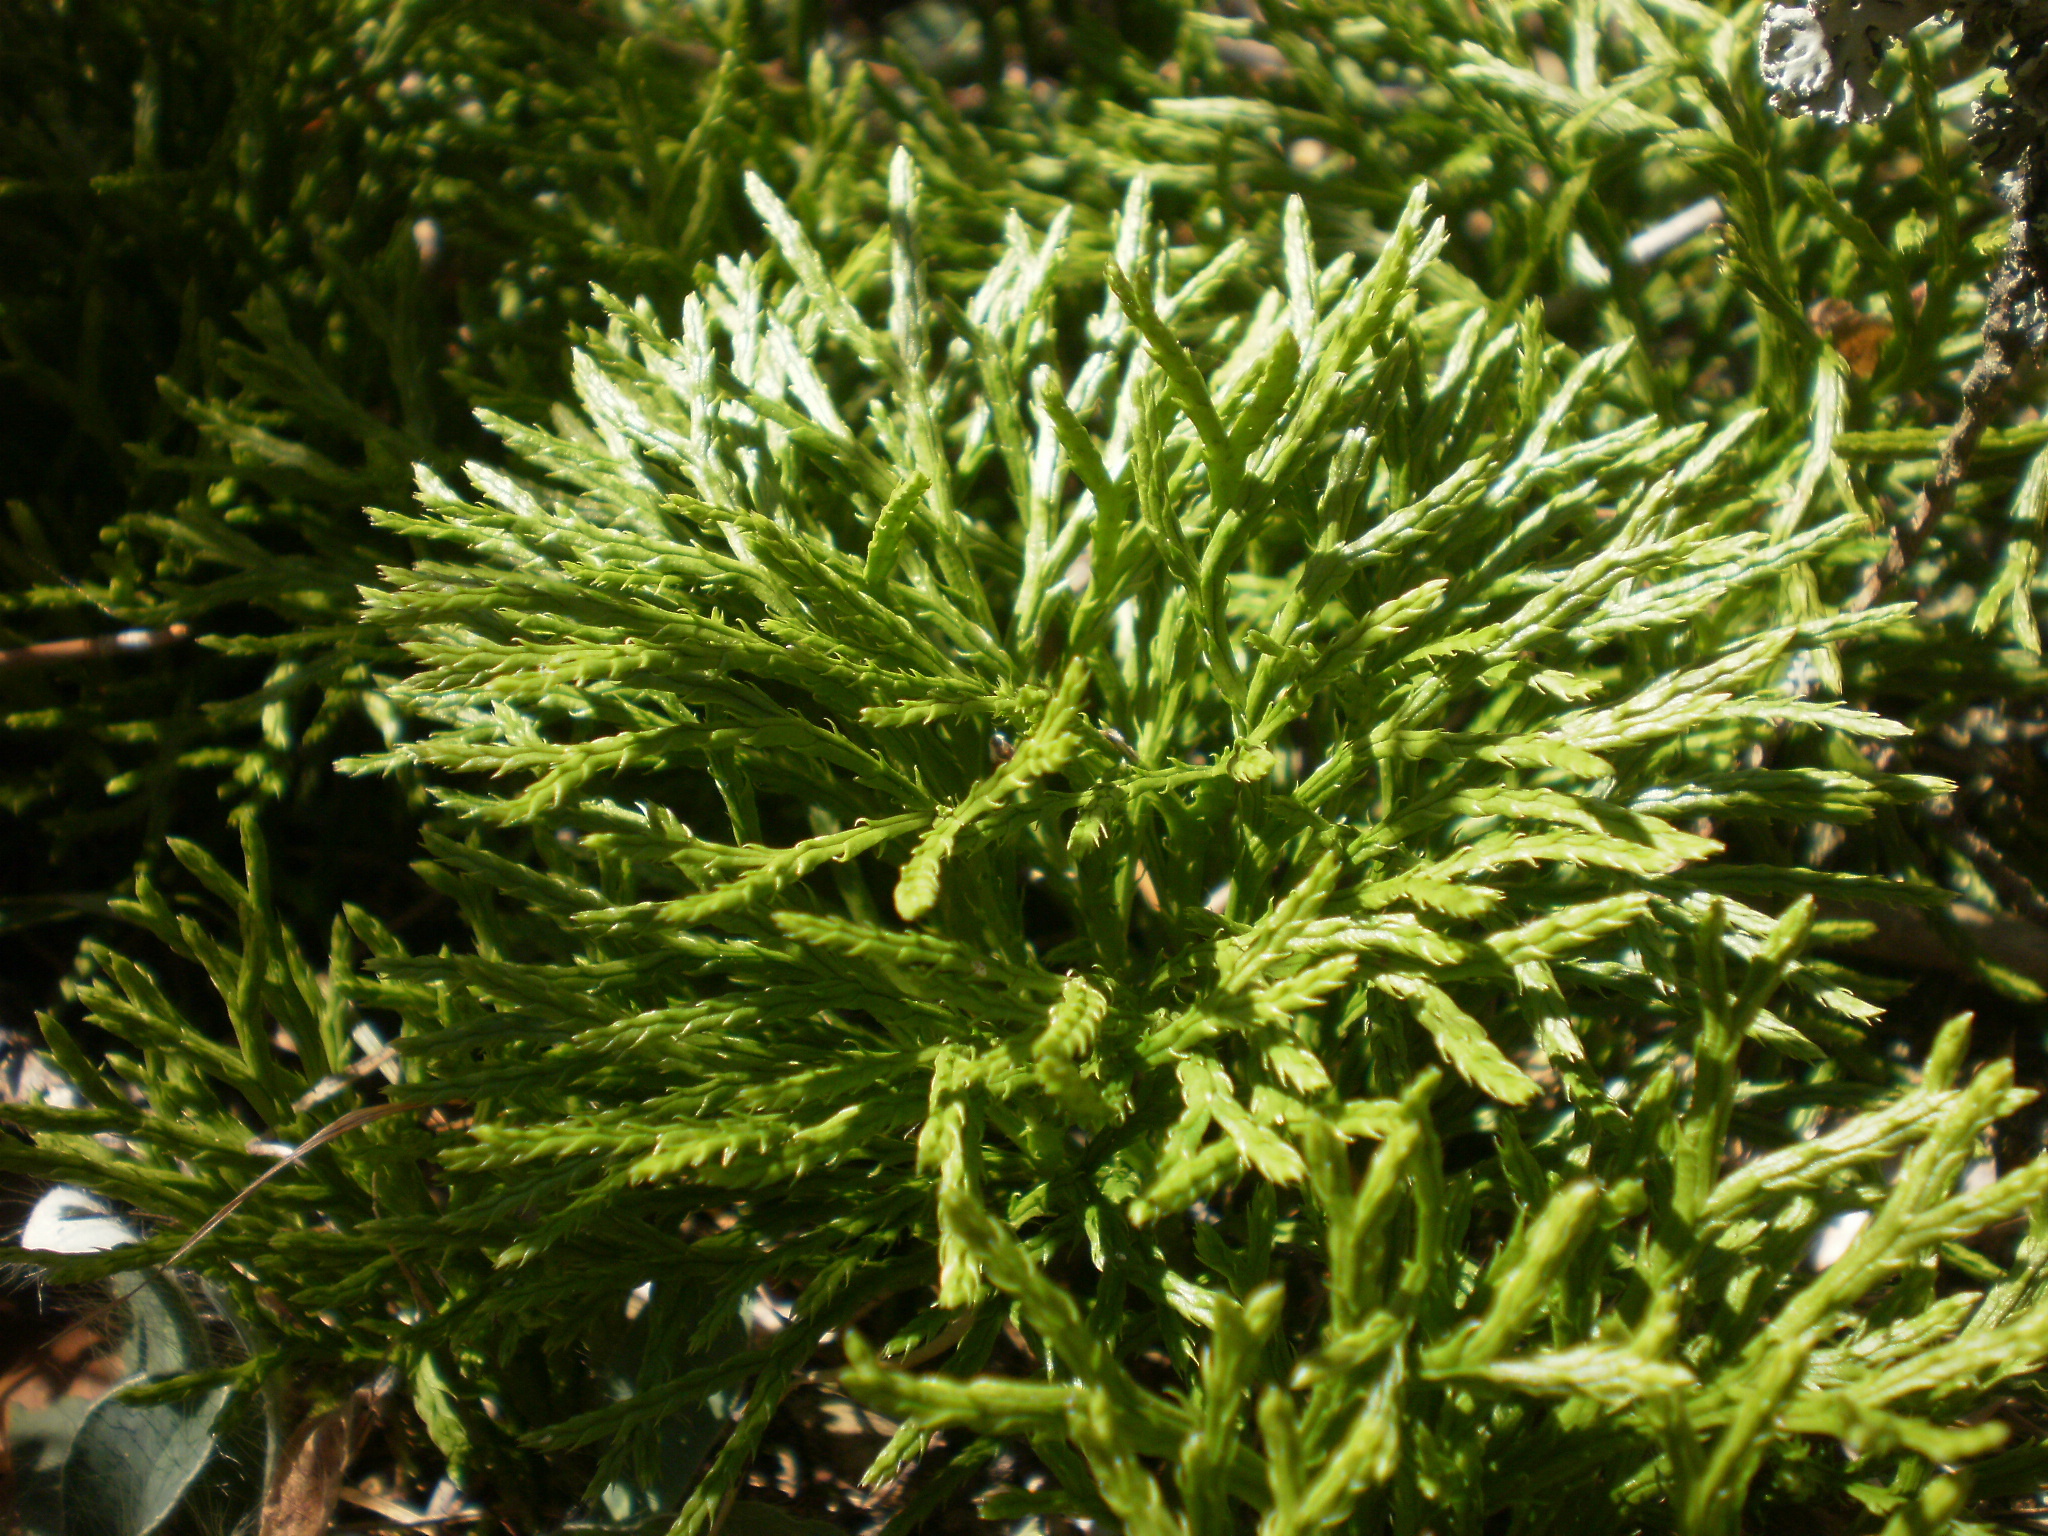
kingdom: Plantae
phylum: Tracheophyta
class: Lycopodiopsida
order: Lycopodiales
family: Lycopodiaceae
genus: Diphasiastrum
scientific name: Diphasiastrum complanatum
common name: Northern running-pine
